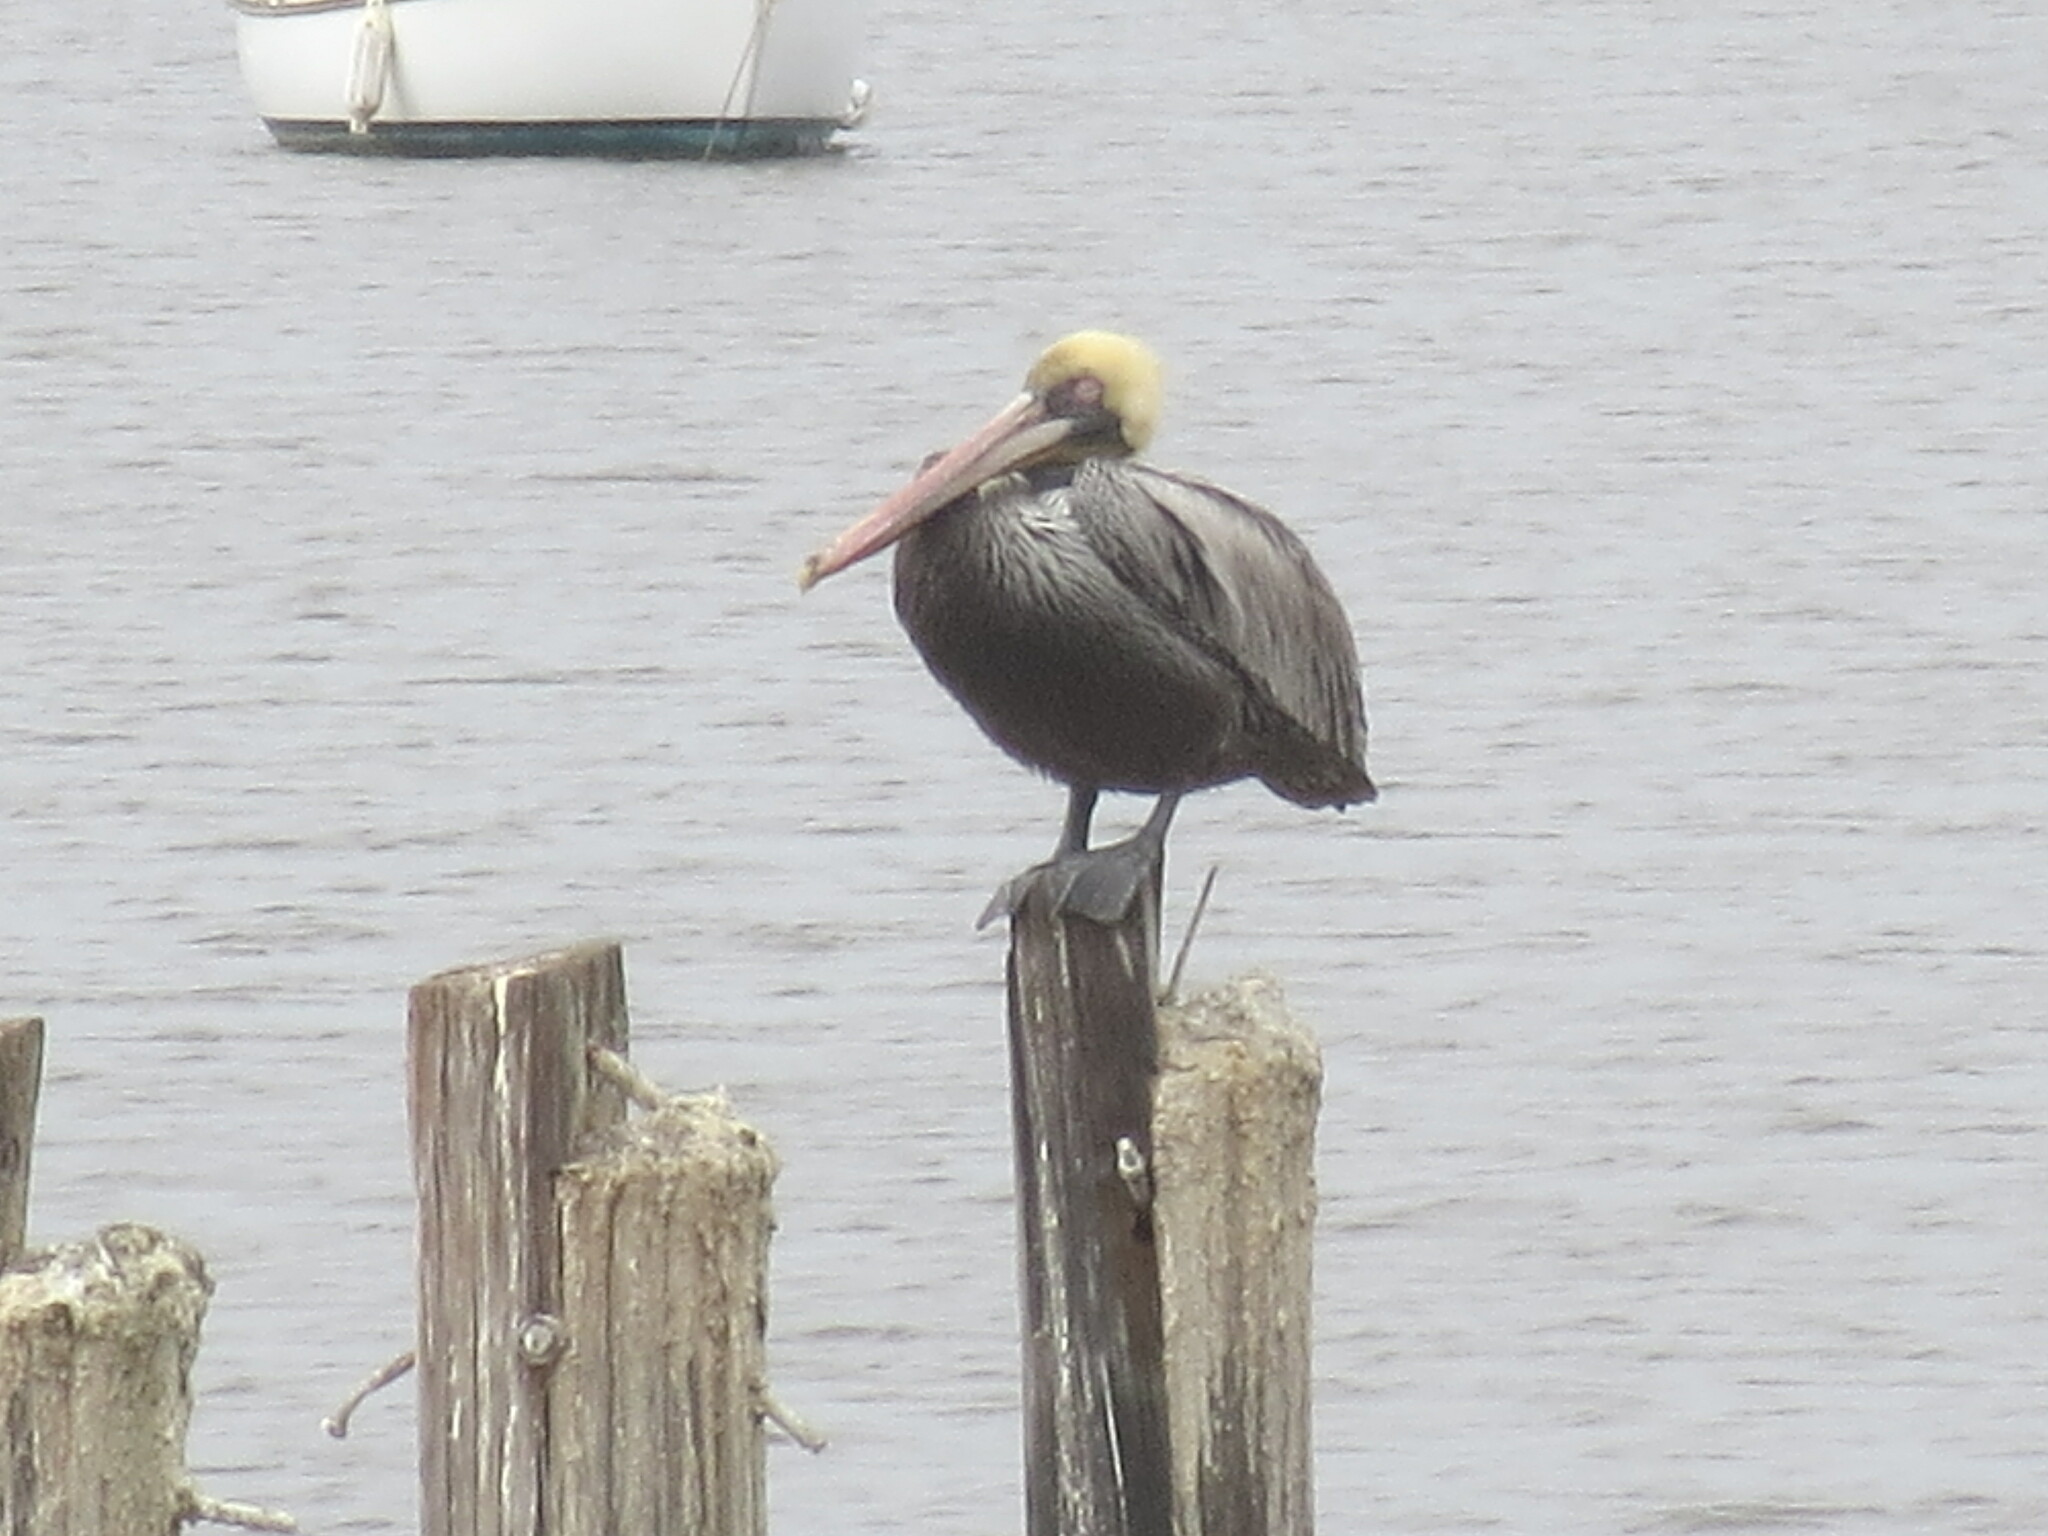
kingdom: Animalia
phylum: Chordata
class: Aves
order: Pelecaniformes
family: Pelecanidae
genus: Pelecanus
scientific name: Pelecanus occidentalis
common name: Brown pelican
